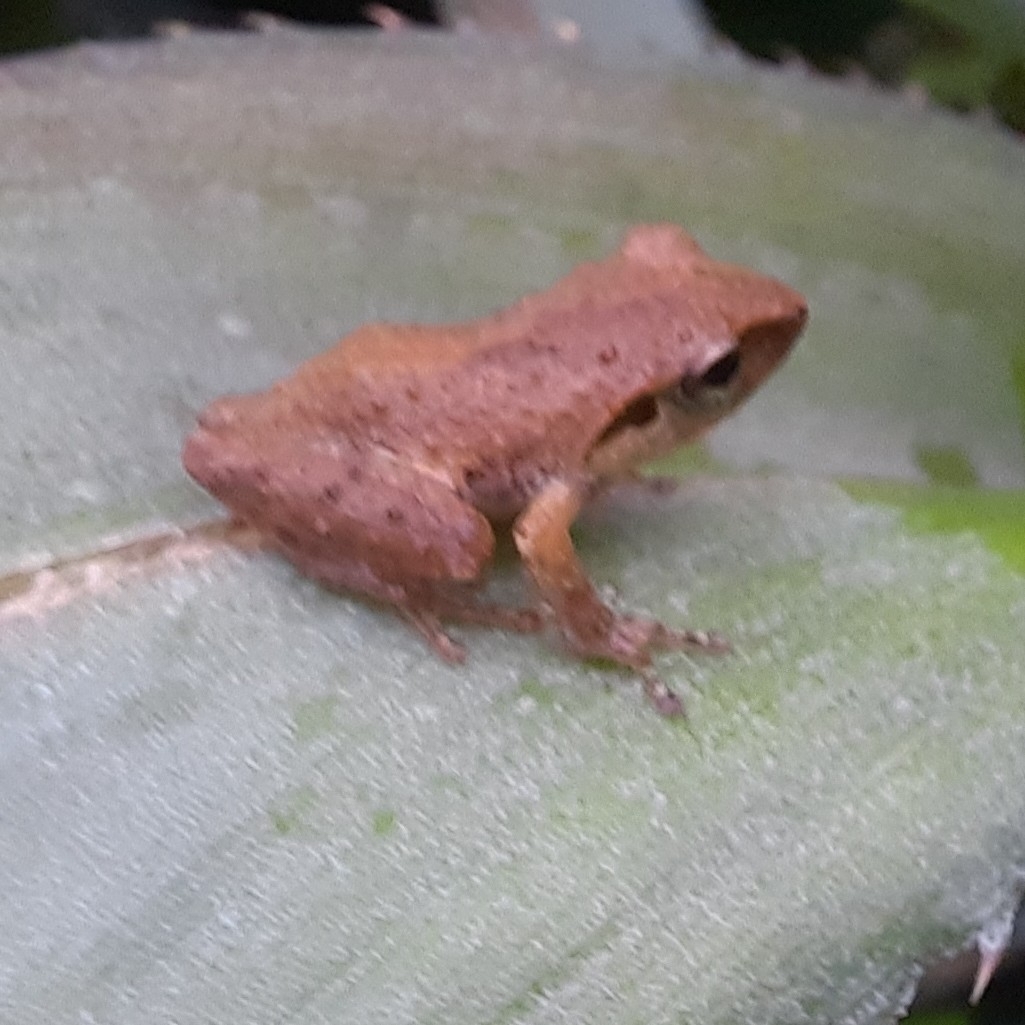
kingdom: Animalia
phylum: Chordata
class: Amphibia
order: Anura
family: Rhacophoridae
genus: Pseudophilautus
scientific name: Pseudophilautus wynaadensis
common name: Dark-eared bush frog
